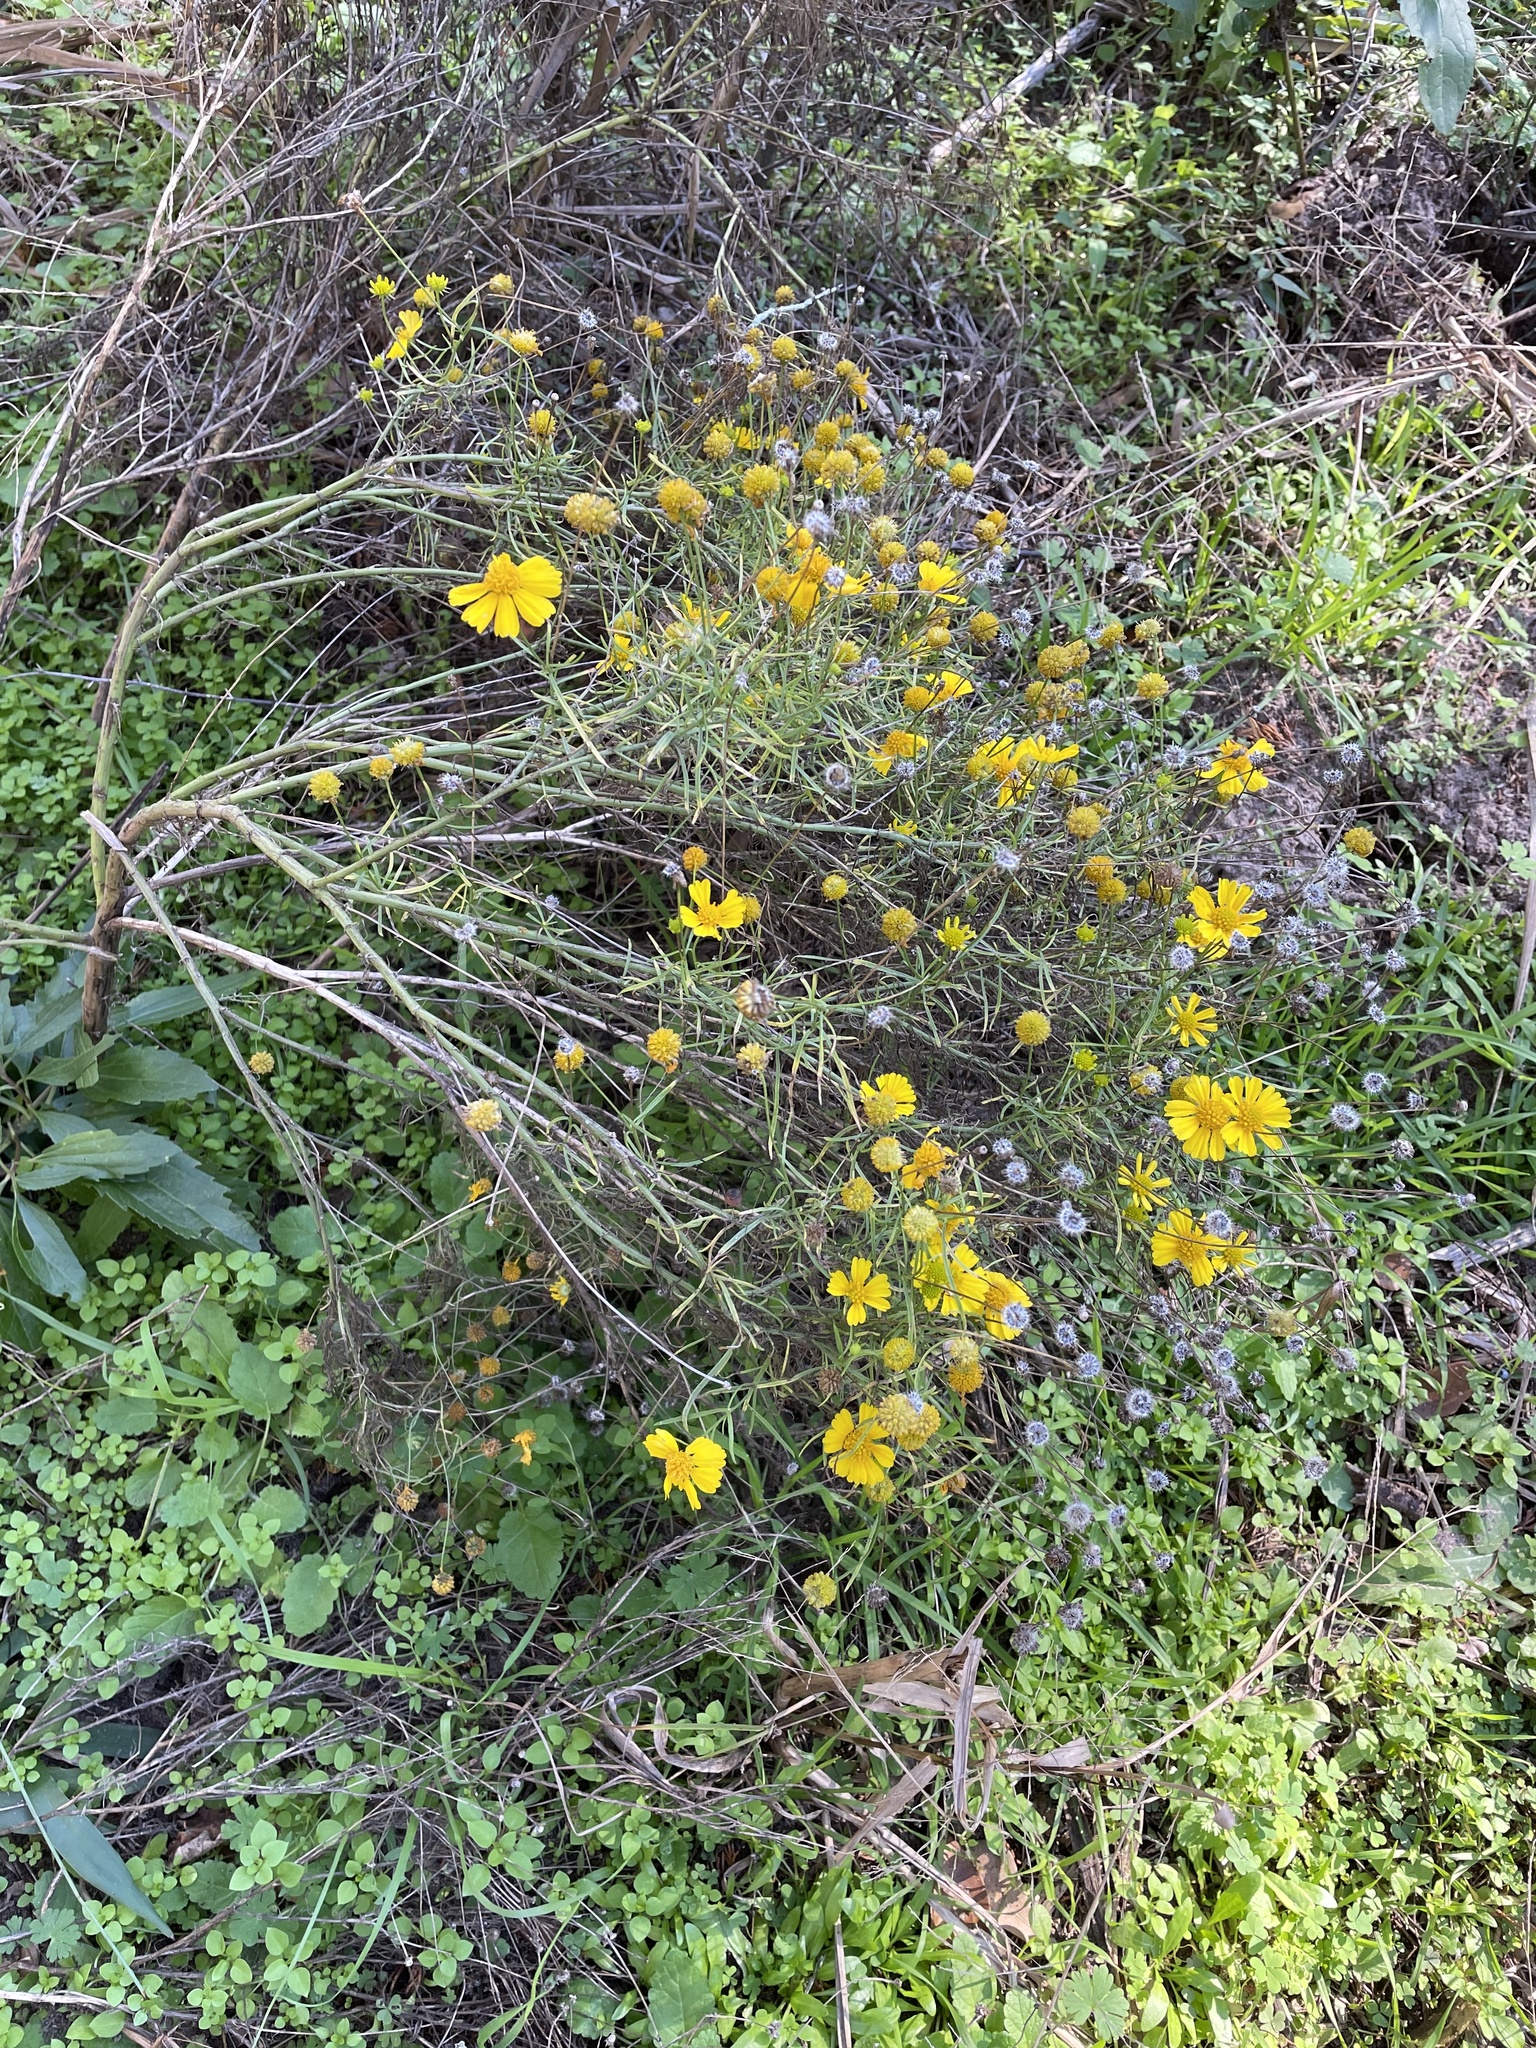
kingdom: Plantae
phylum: Tracheophyta
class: Magnoliopsida
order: Asterales
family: Asteraceae
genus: Helenium
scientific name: Helenium amarum
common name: Bitter sneezeweed
